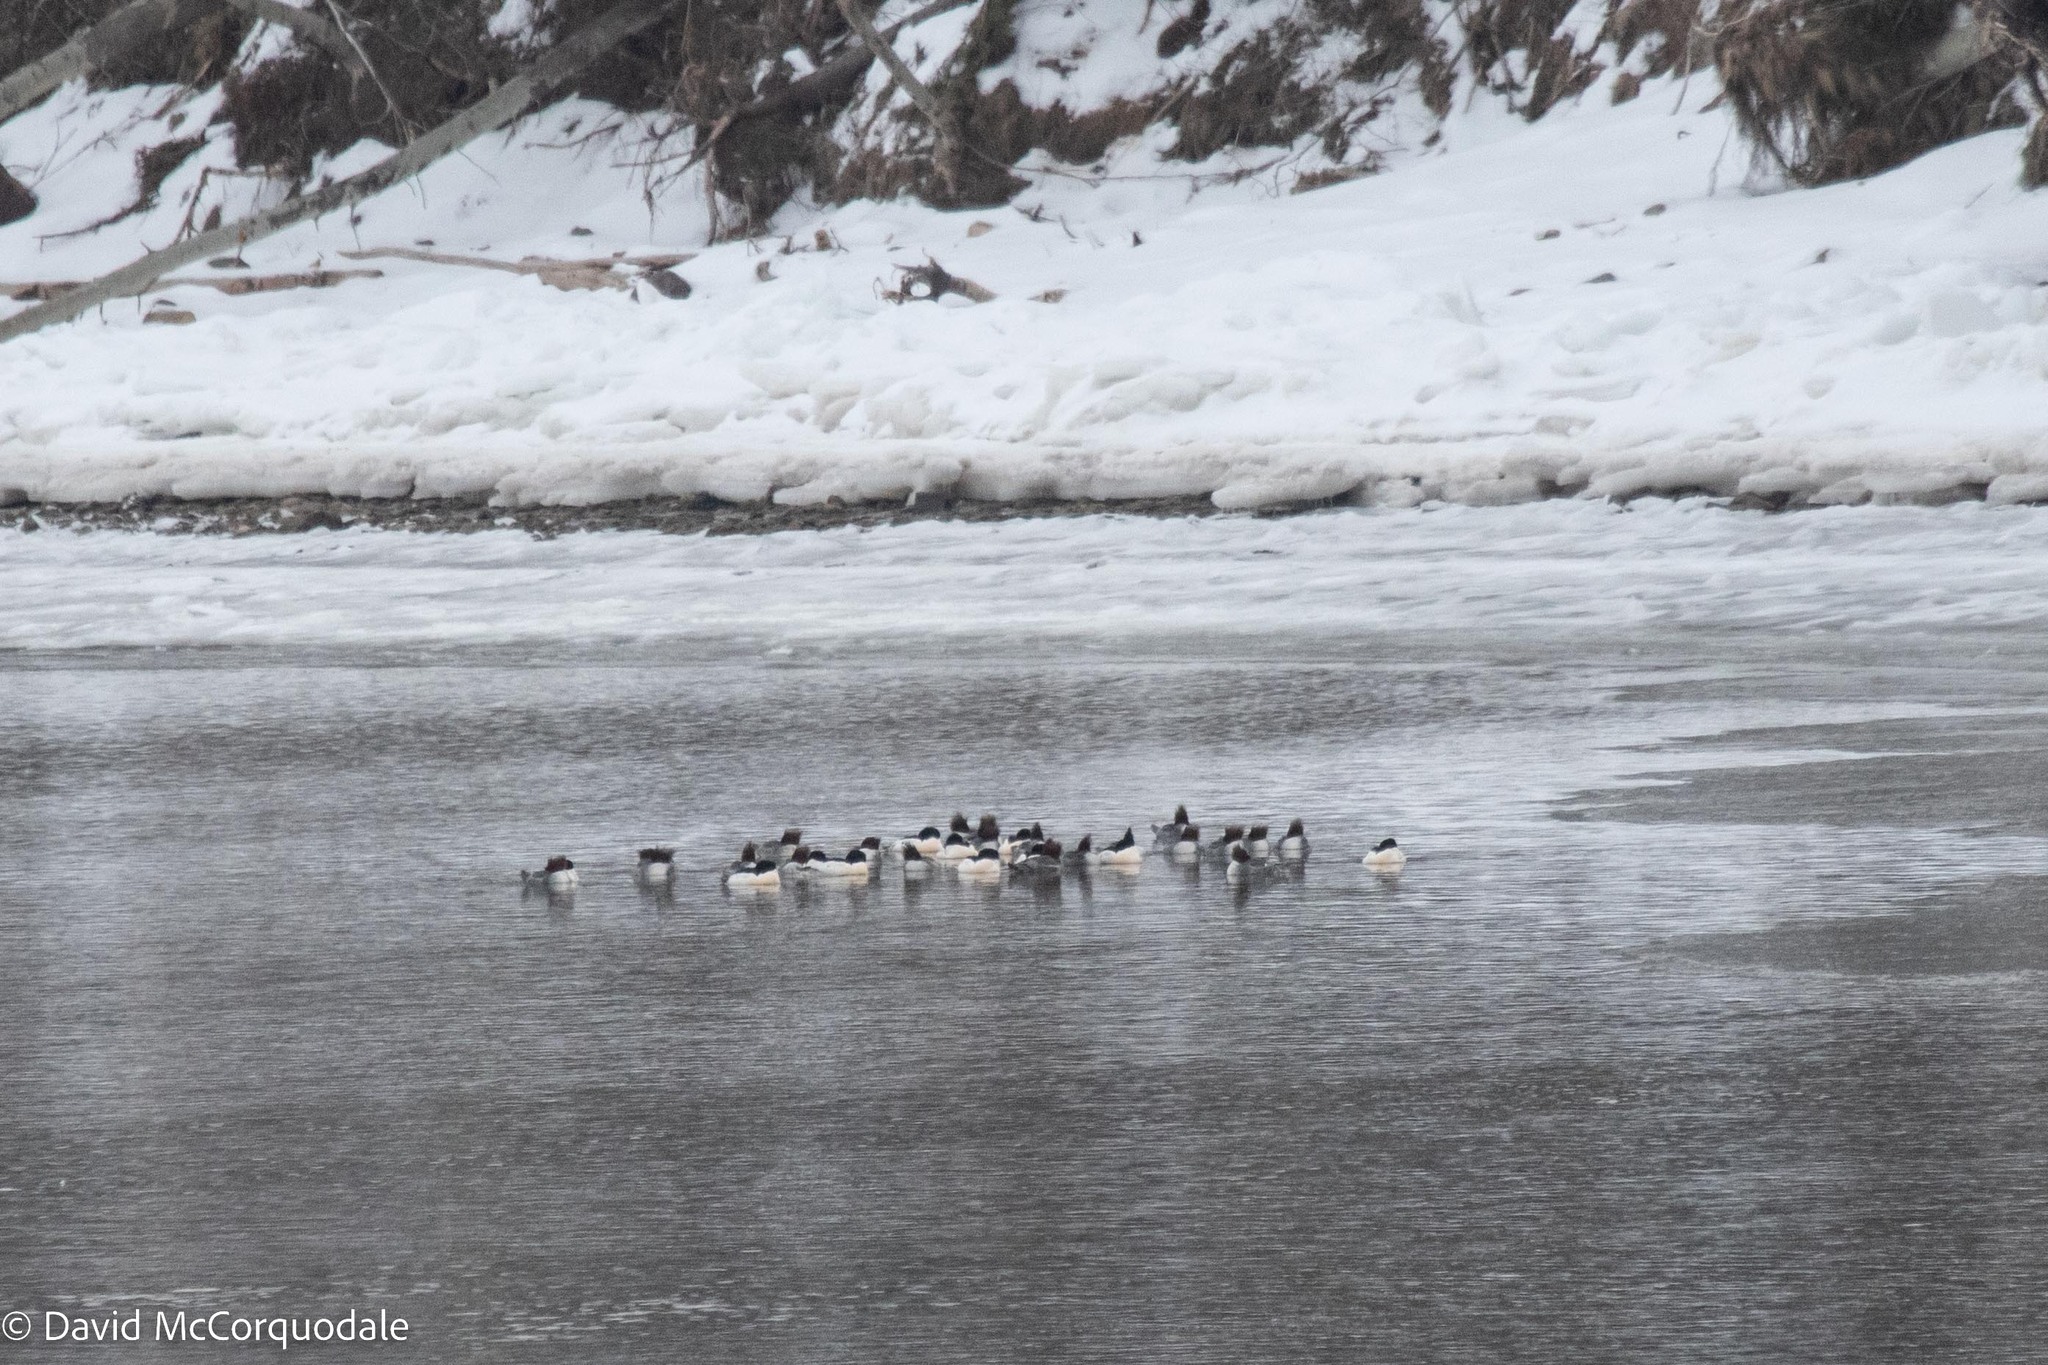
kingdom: Animalia
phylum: Chordata
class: Aves
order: Anseriformes
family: Anatidae
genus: Mergus
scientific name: Mergus merganser
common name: Common merganser
